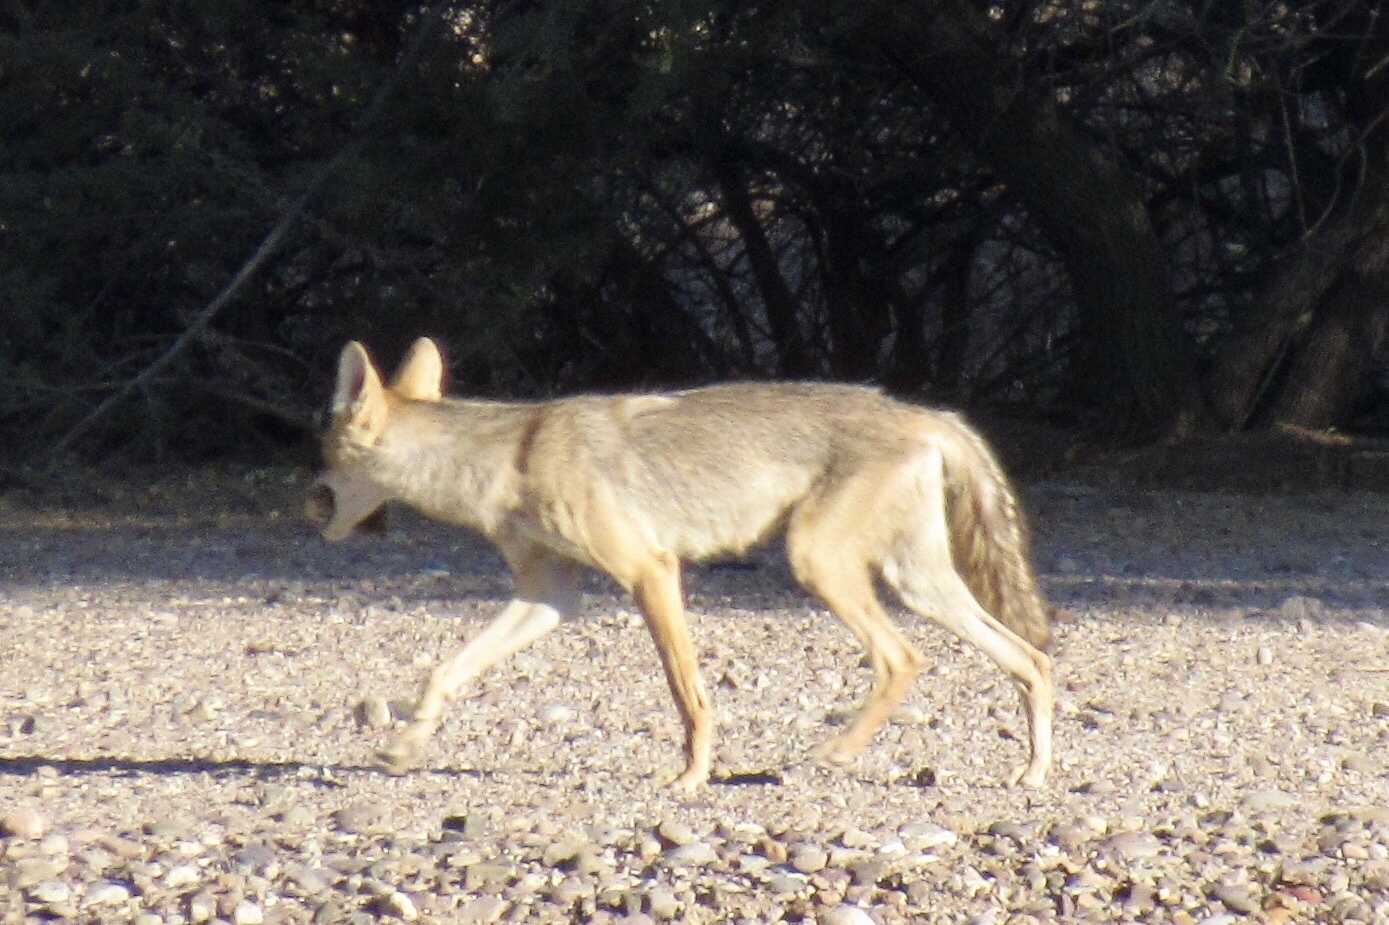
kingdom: Animalia
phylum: Chordata
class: Mammalia
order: Carnivora
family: Canidae
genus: Canis
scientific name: Canis latrans
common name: Coyote
